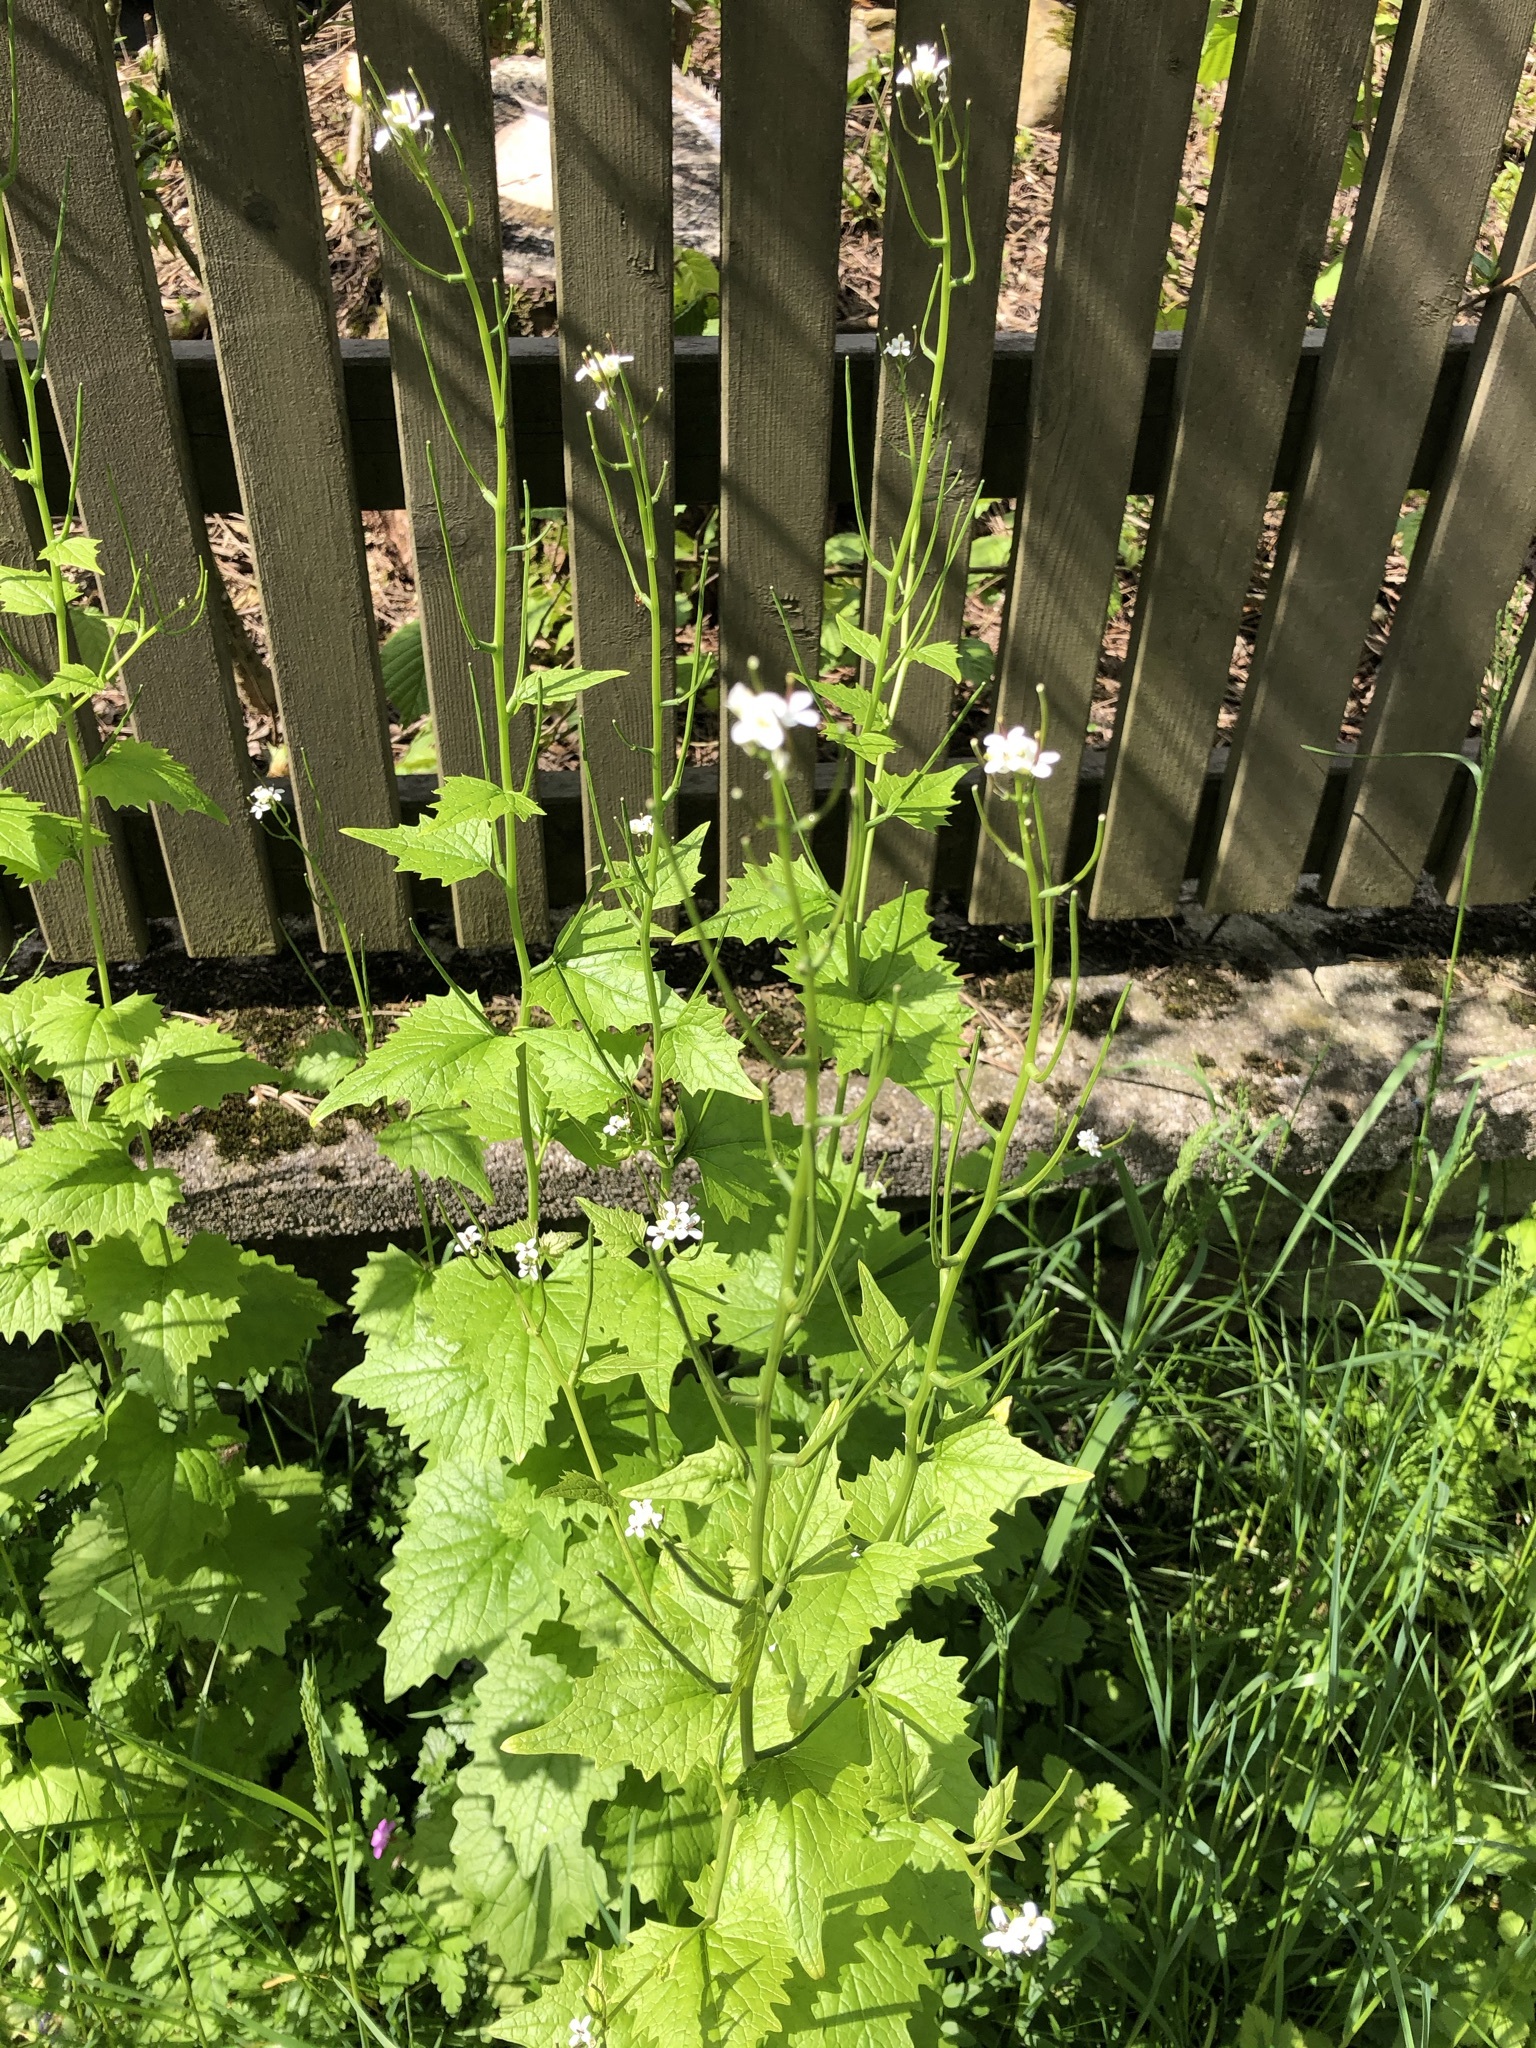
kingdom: Plantae
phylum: Tracheophyta
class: Magnoliopsida
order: Brassicales
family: Brassicaceae
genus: Alliaria
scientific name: Alliaria petiolata
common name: Garlic mustard
